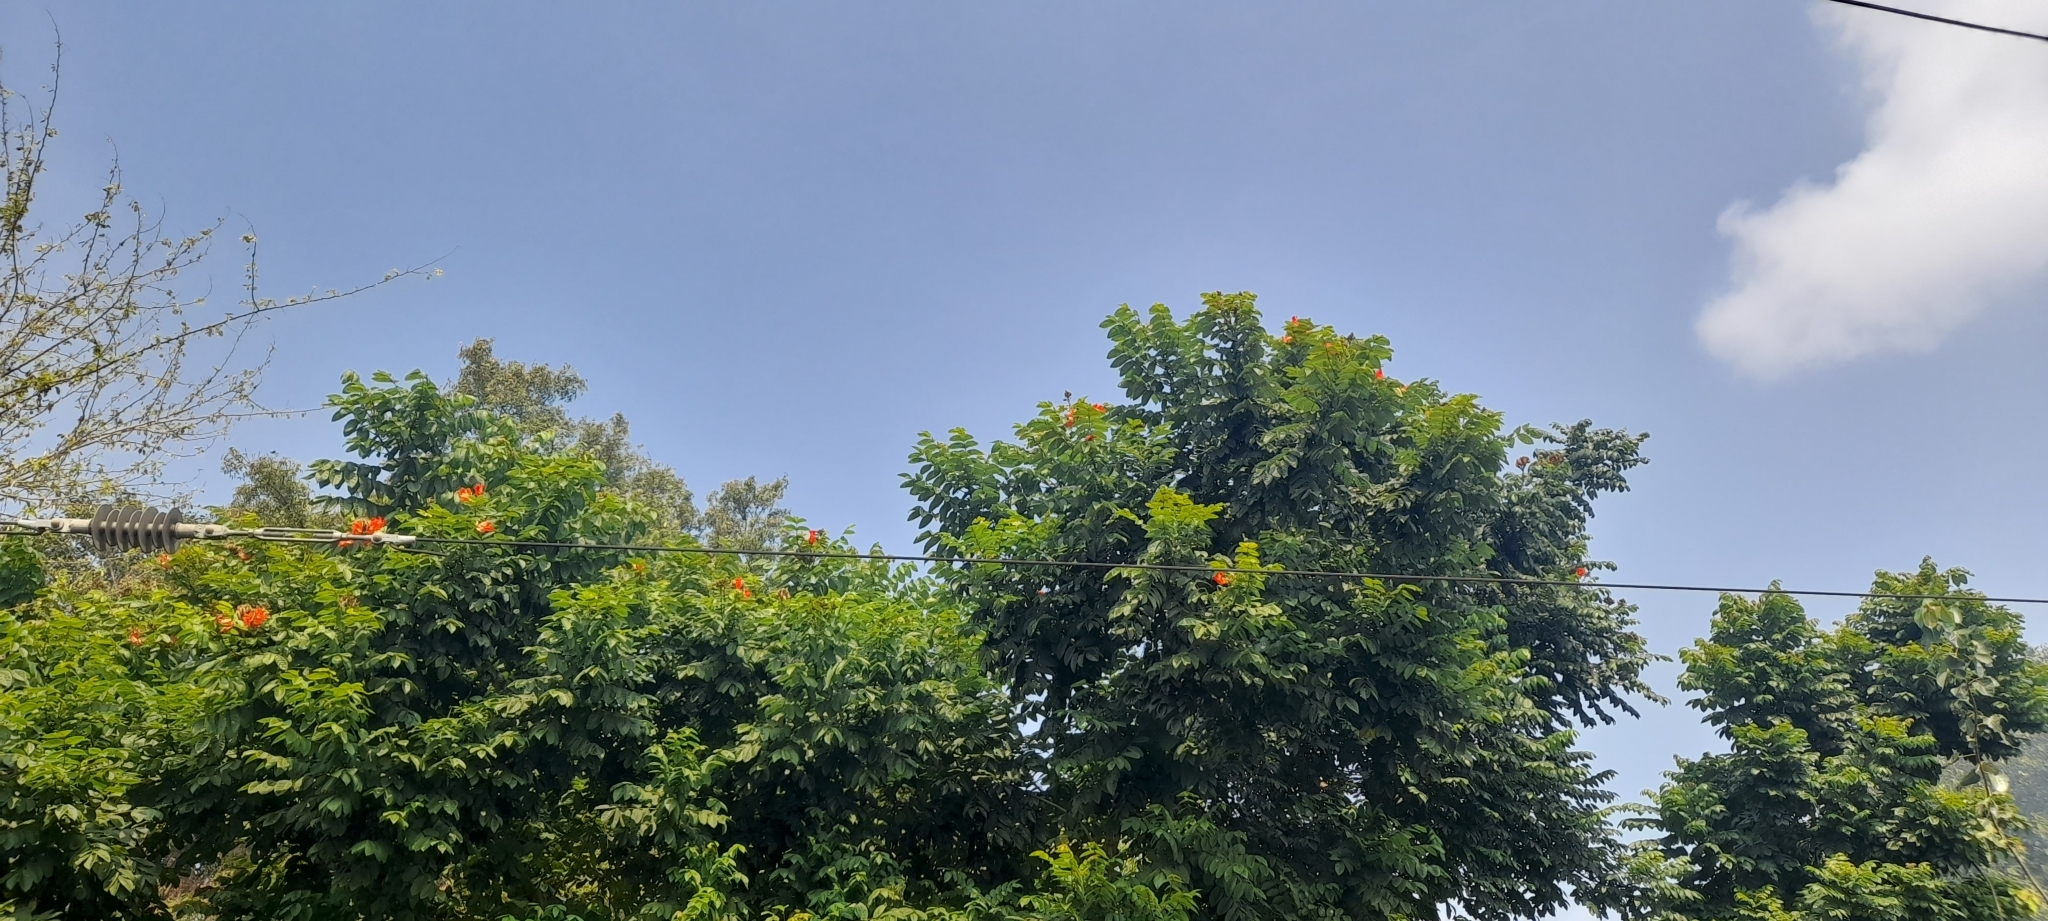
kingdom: Plantae
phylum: Tracheophyta
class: Magnoliopsida
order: Lamiales
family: Bignoniaceae
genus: Spathodea
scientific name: Spathodea campanulata
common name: African tuliptree
